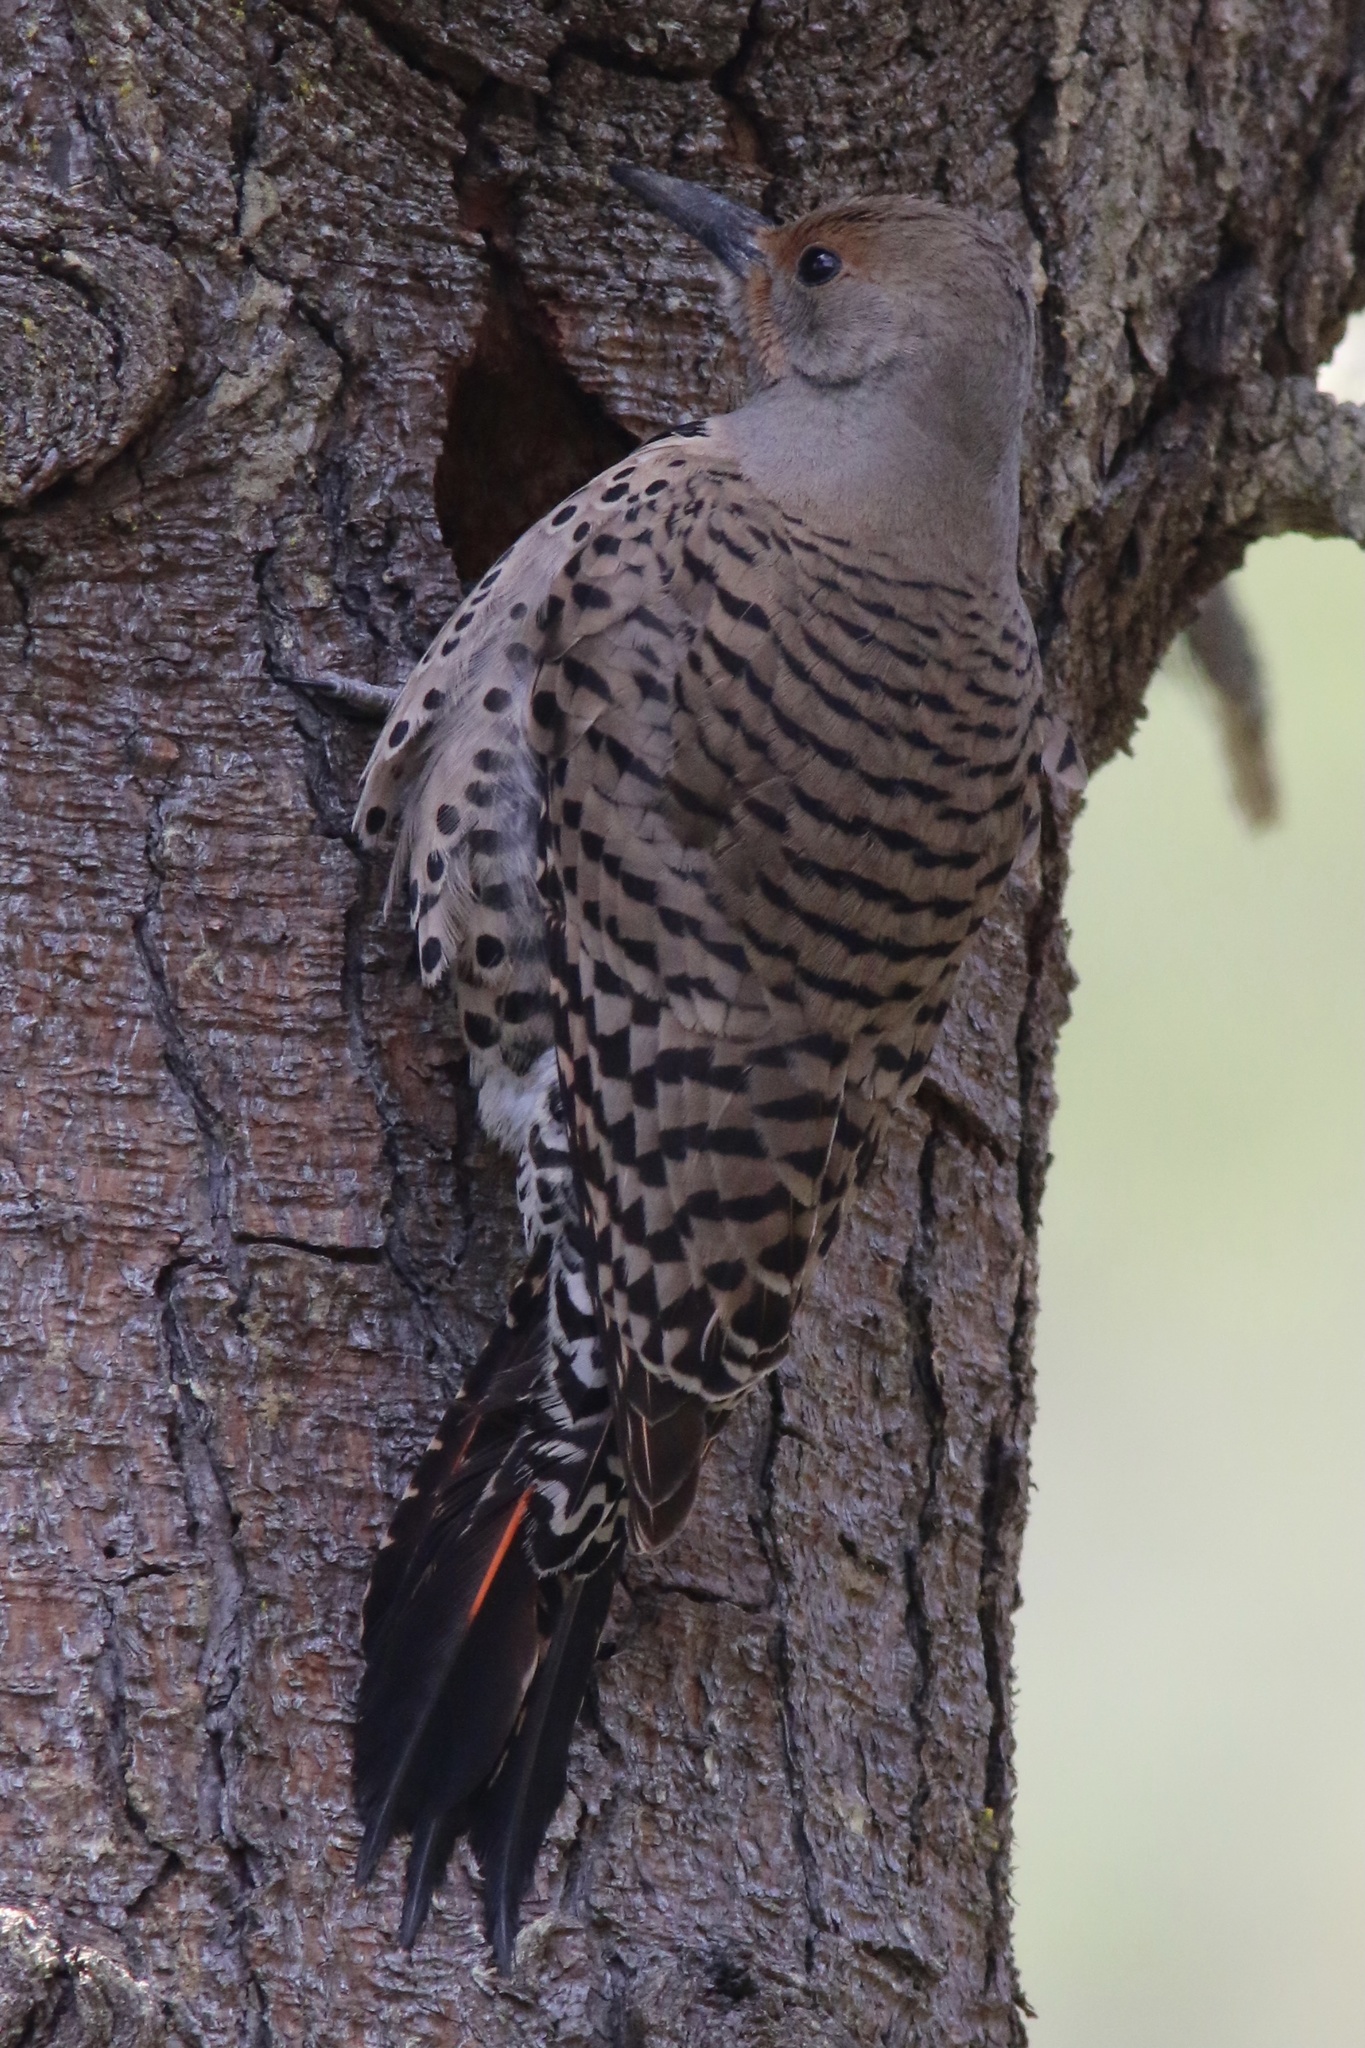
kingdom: Animalia
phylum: Chordata
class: Aves
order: Piciformes
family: Picidae
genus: Colaptes
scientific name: Colaptes auratus
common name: Northern flicker
